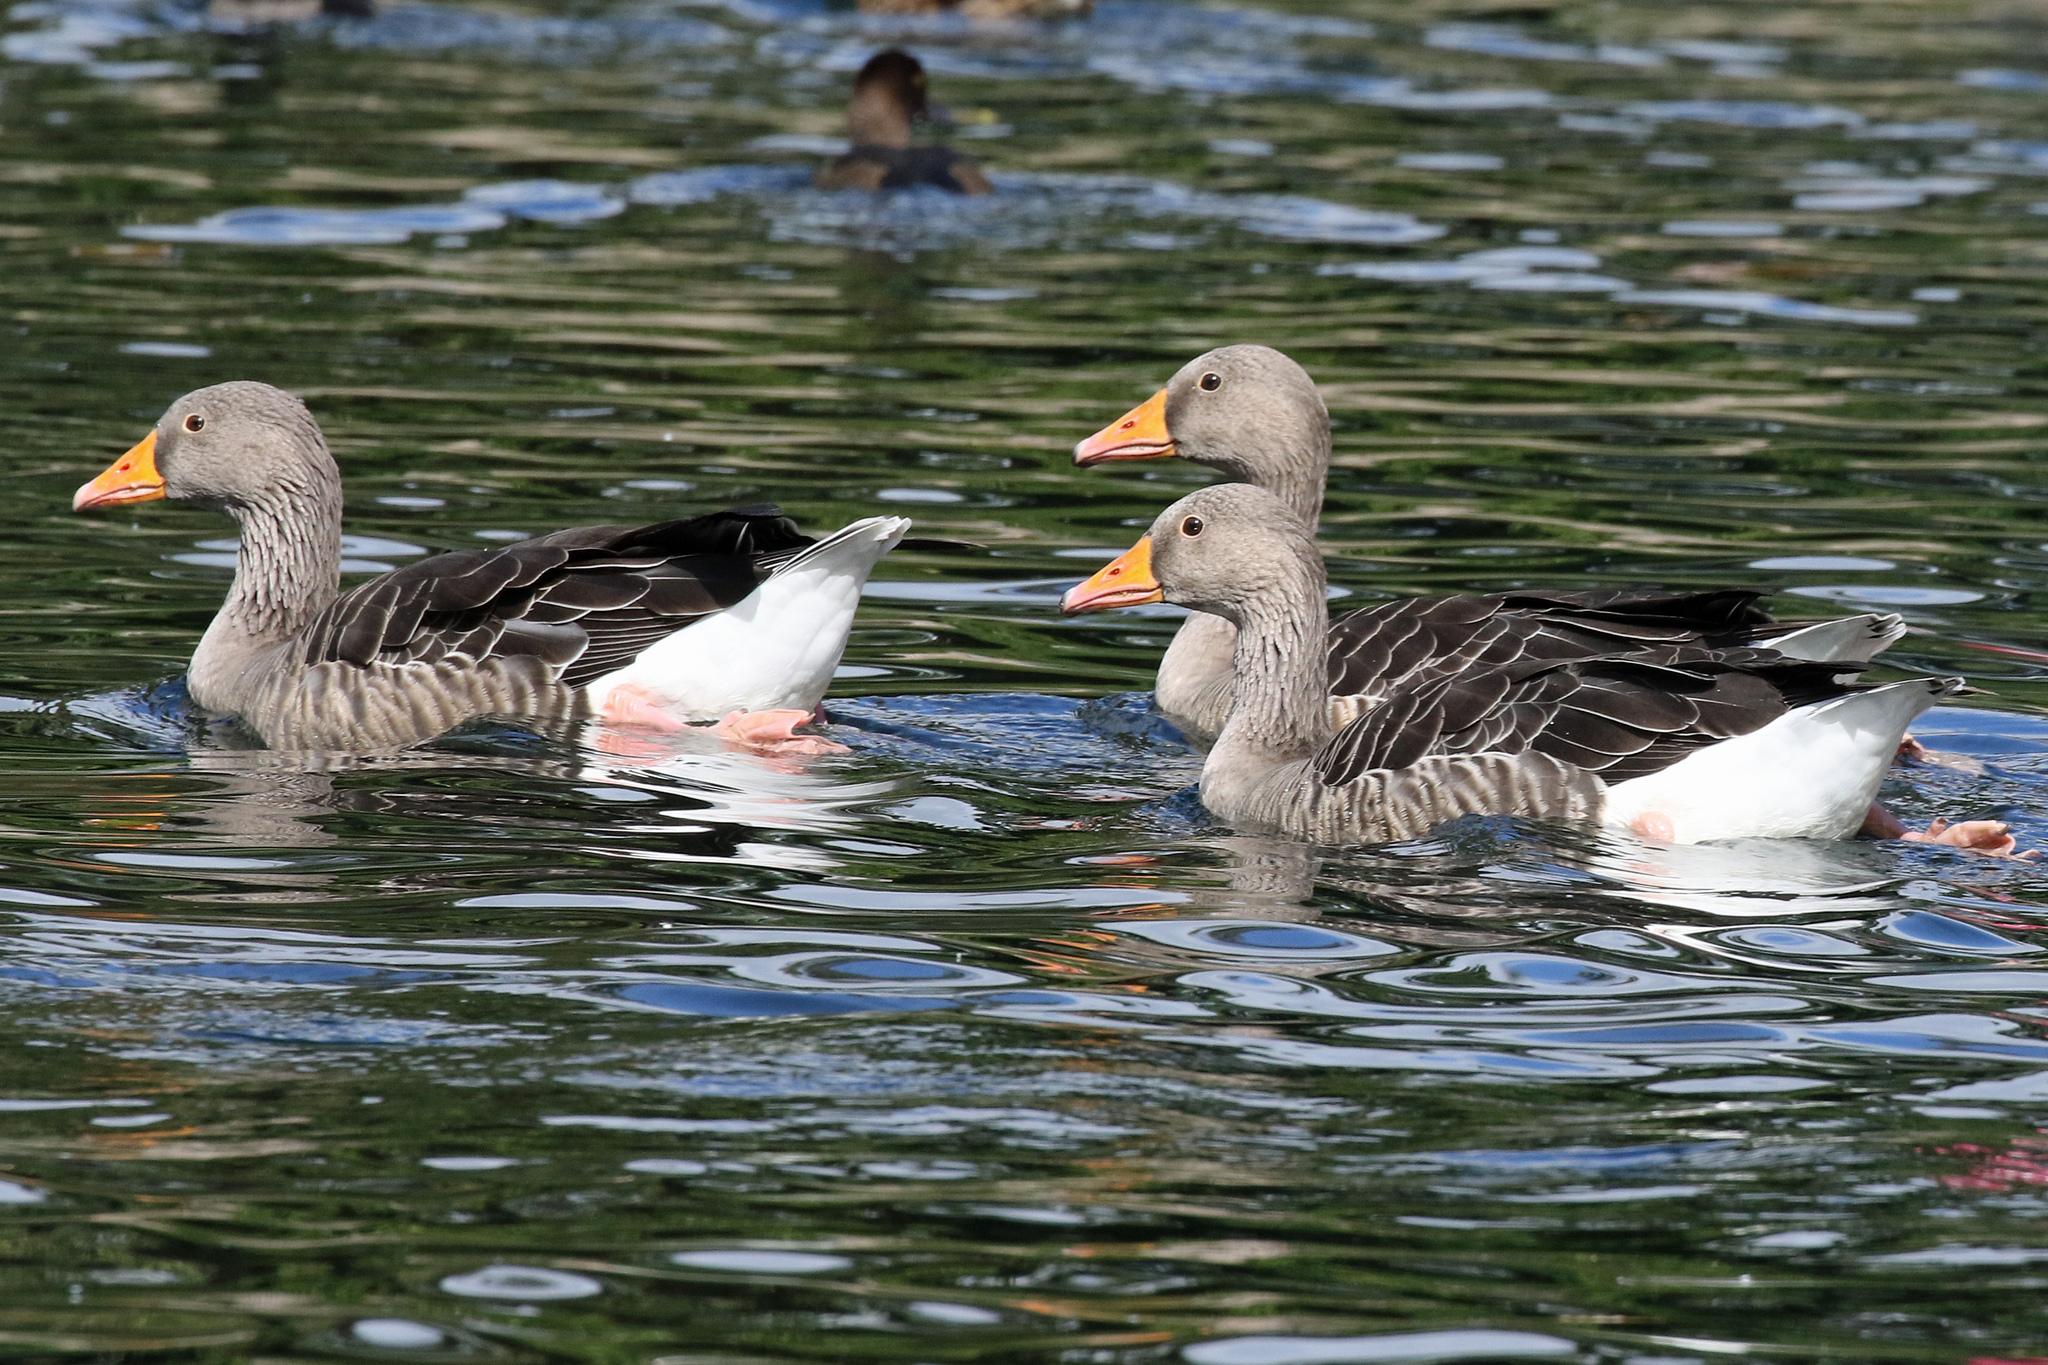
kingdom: Animalia
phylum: Chordata
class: Aves
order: Anseriformes
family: Anatidae
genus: Anser
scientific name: Anser anser
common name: Greylag goose
